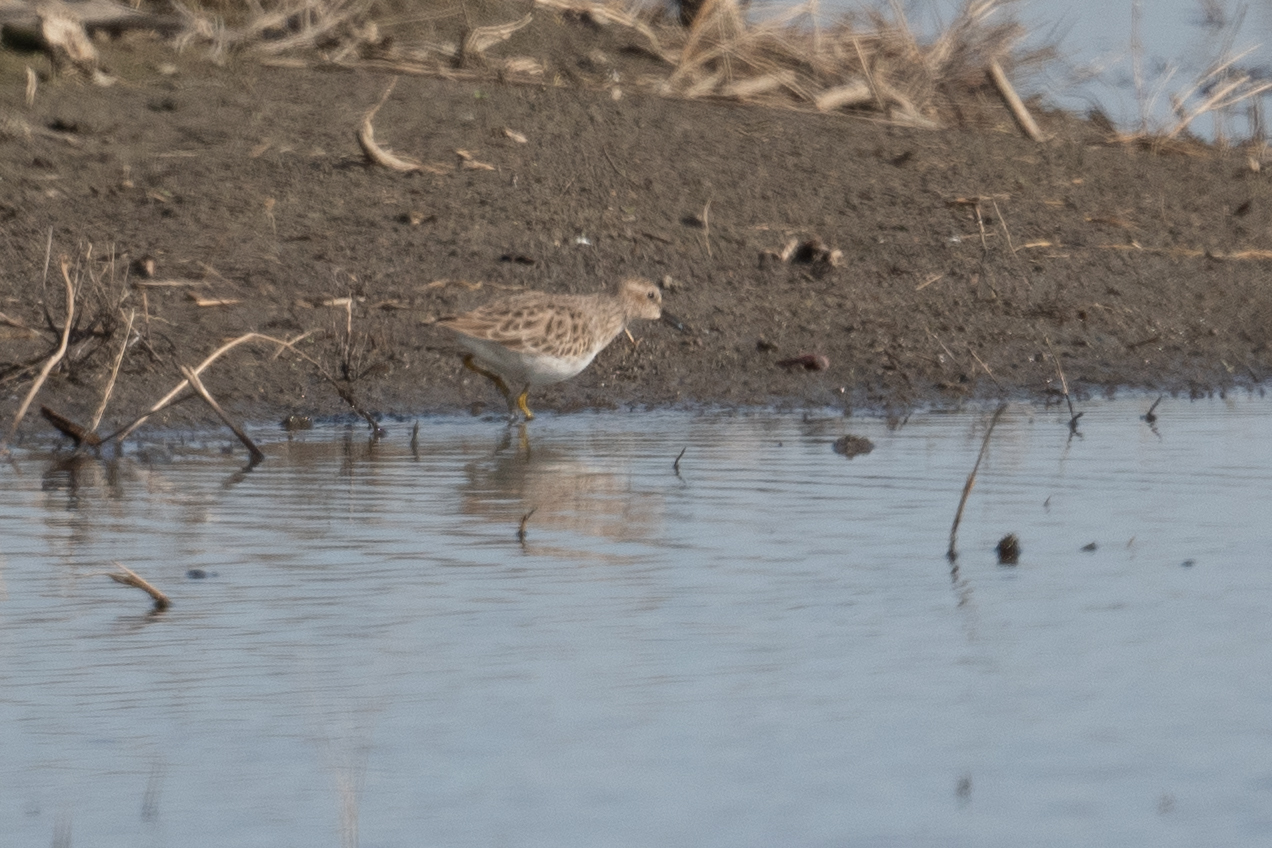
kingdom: Animalia
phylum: Chordata
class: Aves
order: Charadriiformes
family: Scolopacidae
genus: Calidris
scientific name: Calidris minutilla
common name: Least sandpiper
